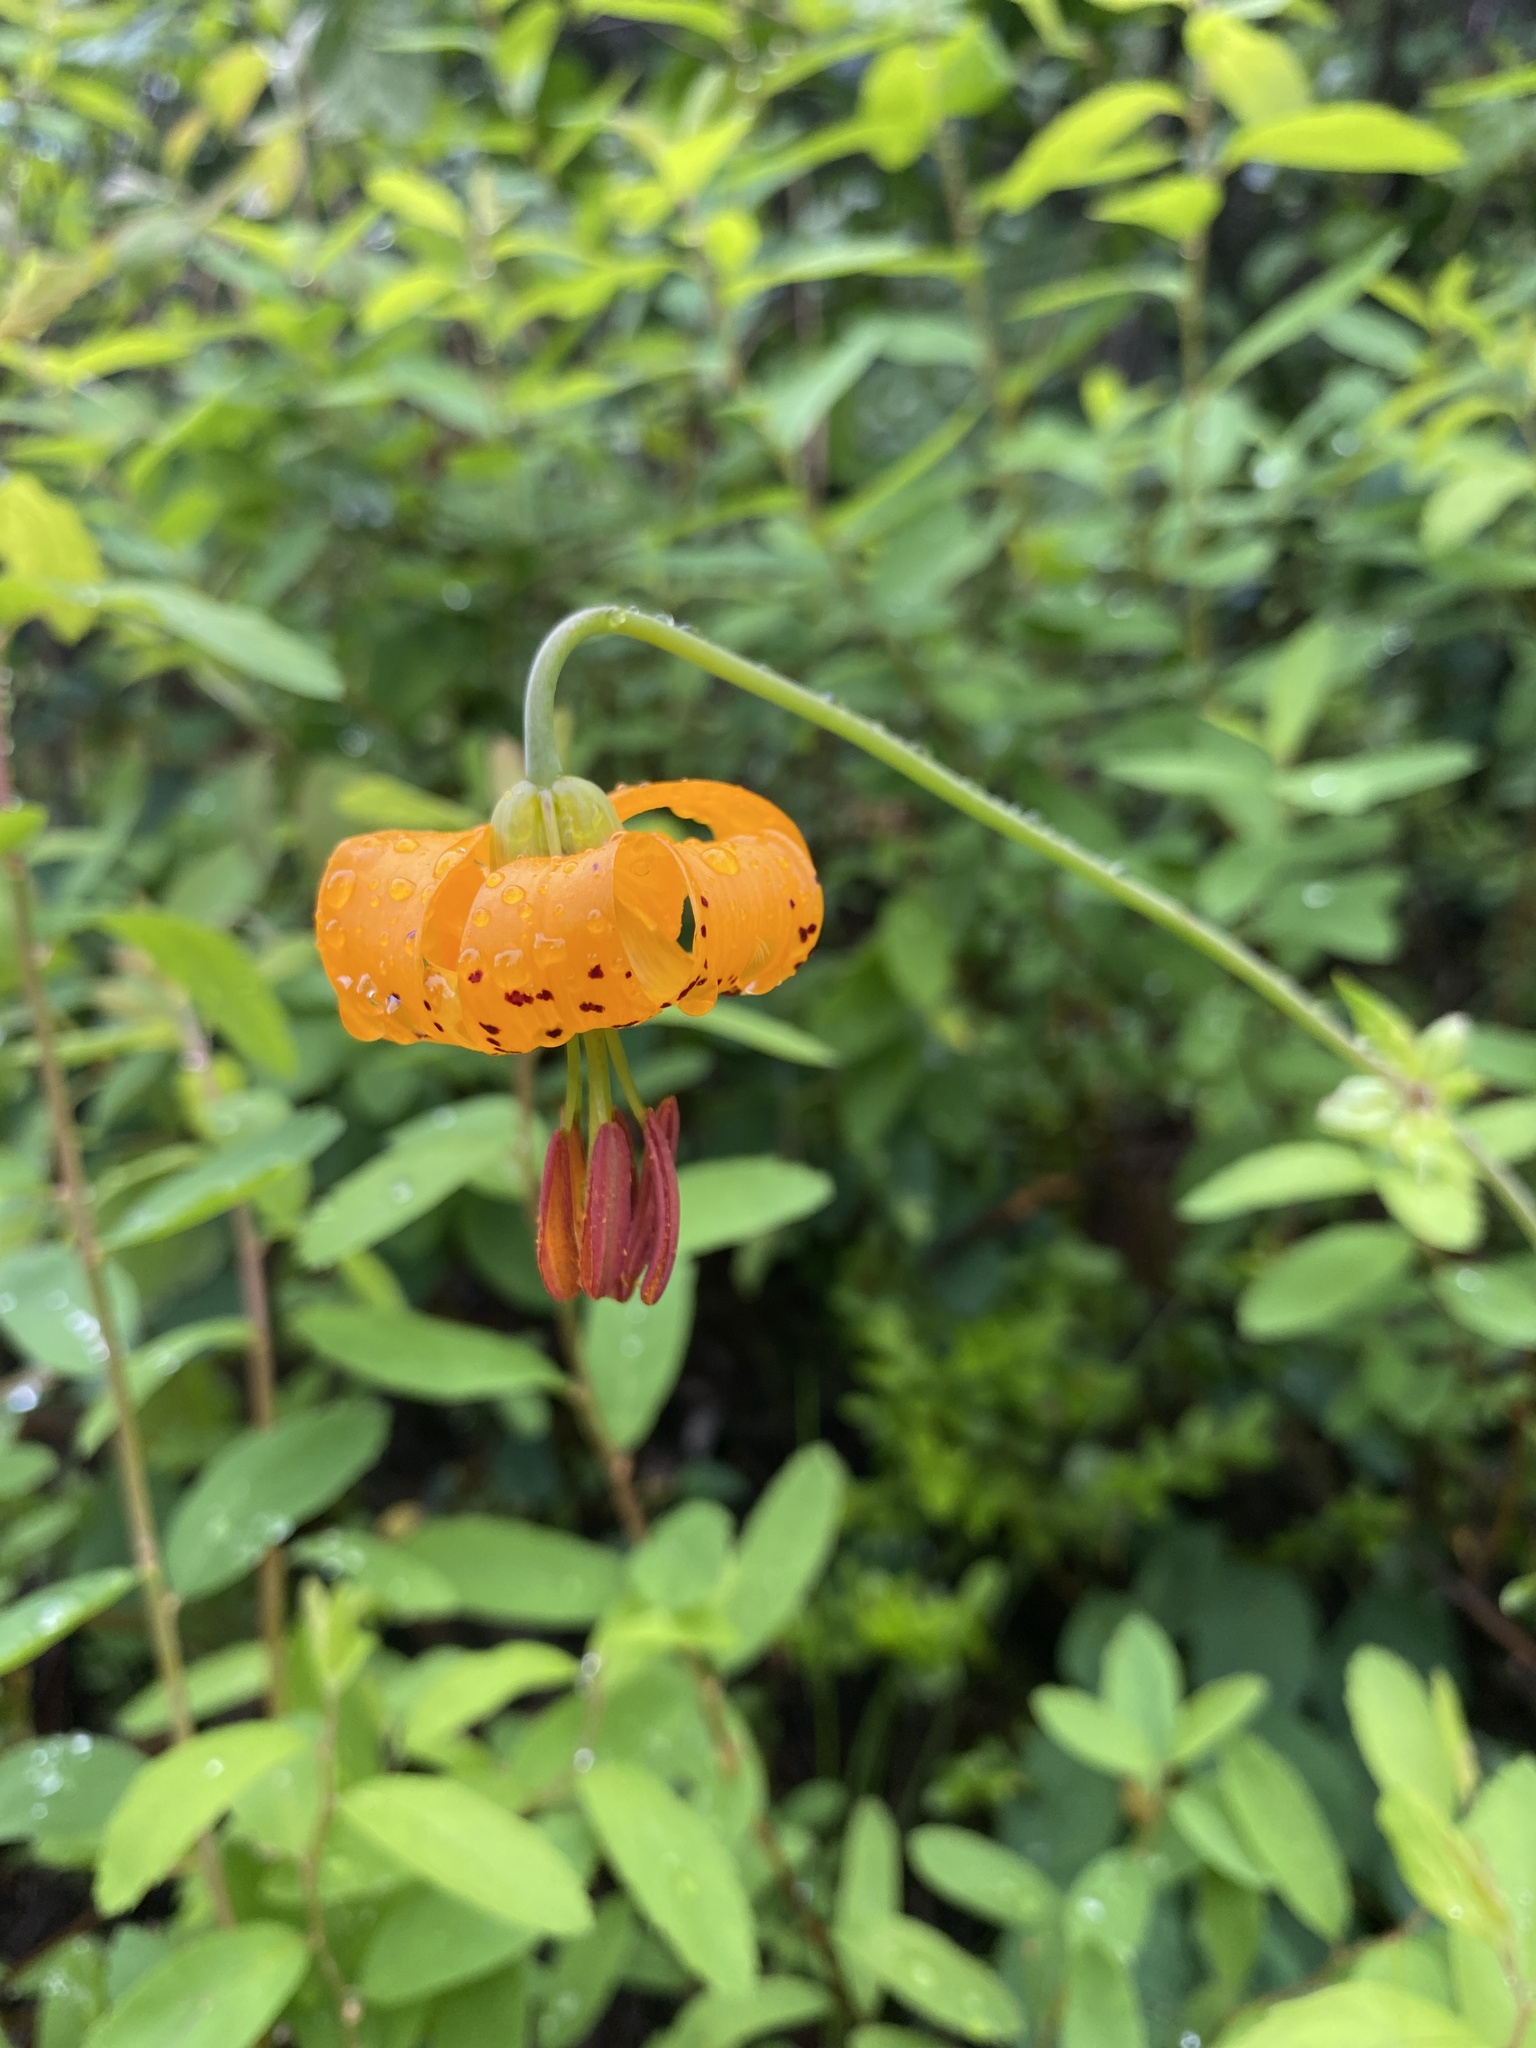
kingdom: Plantae
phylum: Tracheophyta
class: Liliopsida
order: Liliales
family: Liliaceae
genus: Lilium
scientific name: Lilium columbianum
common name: Columbia lily
